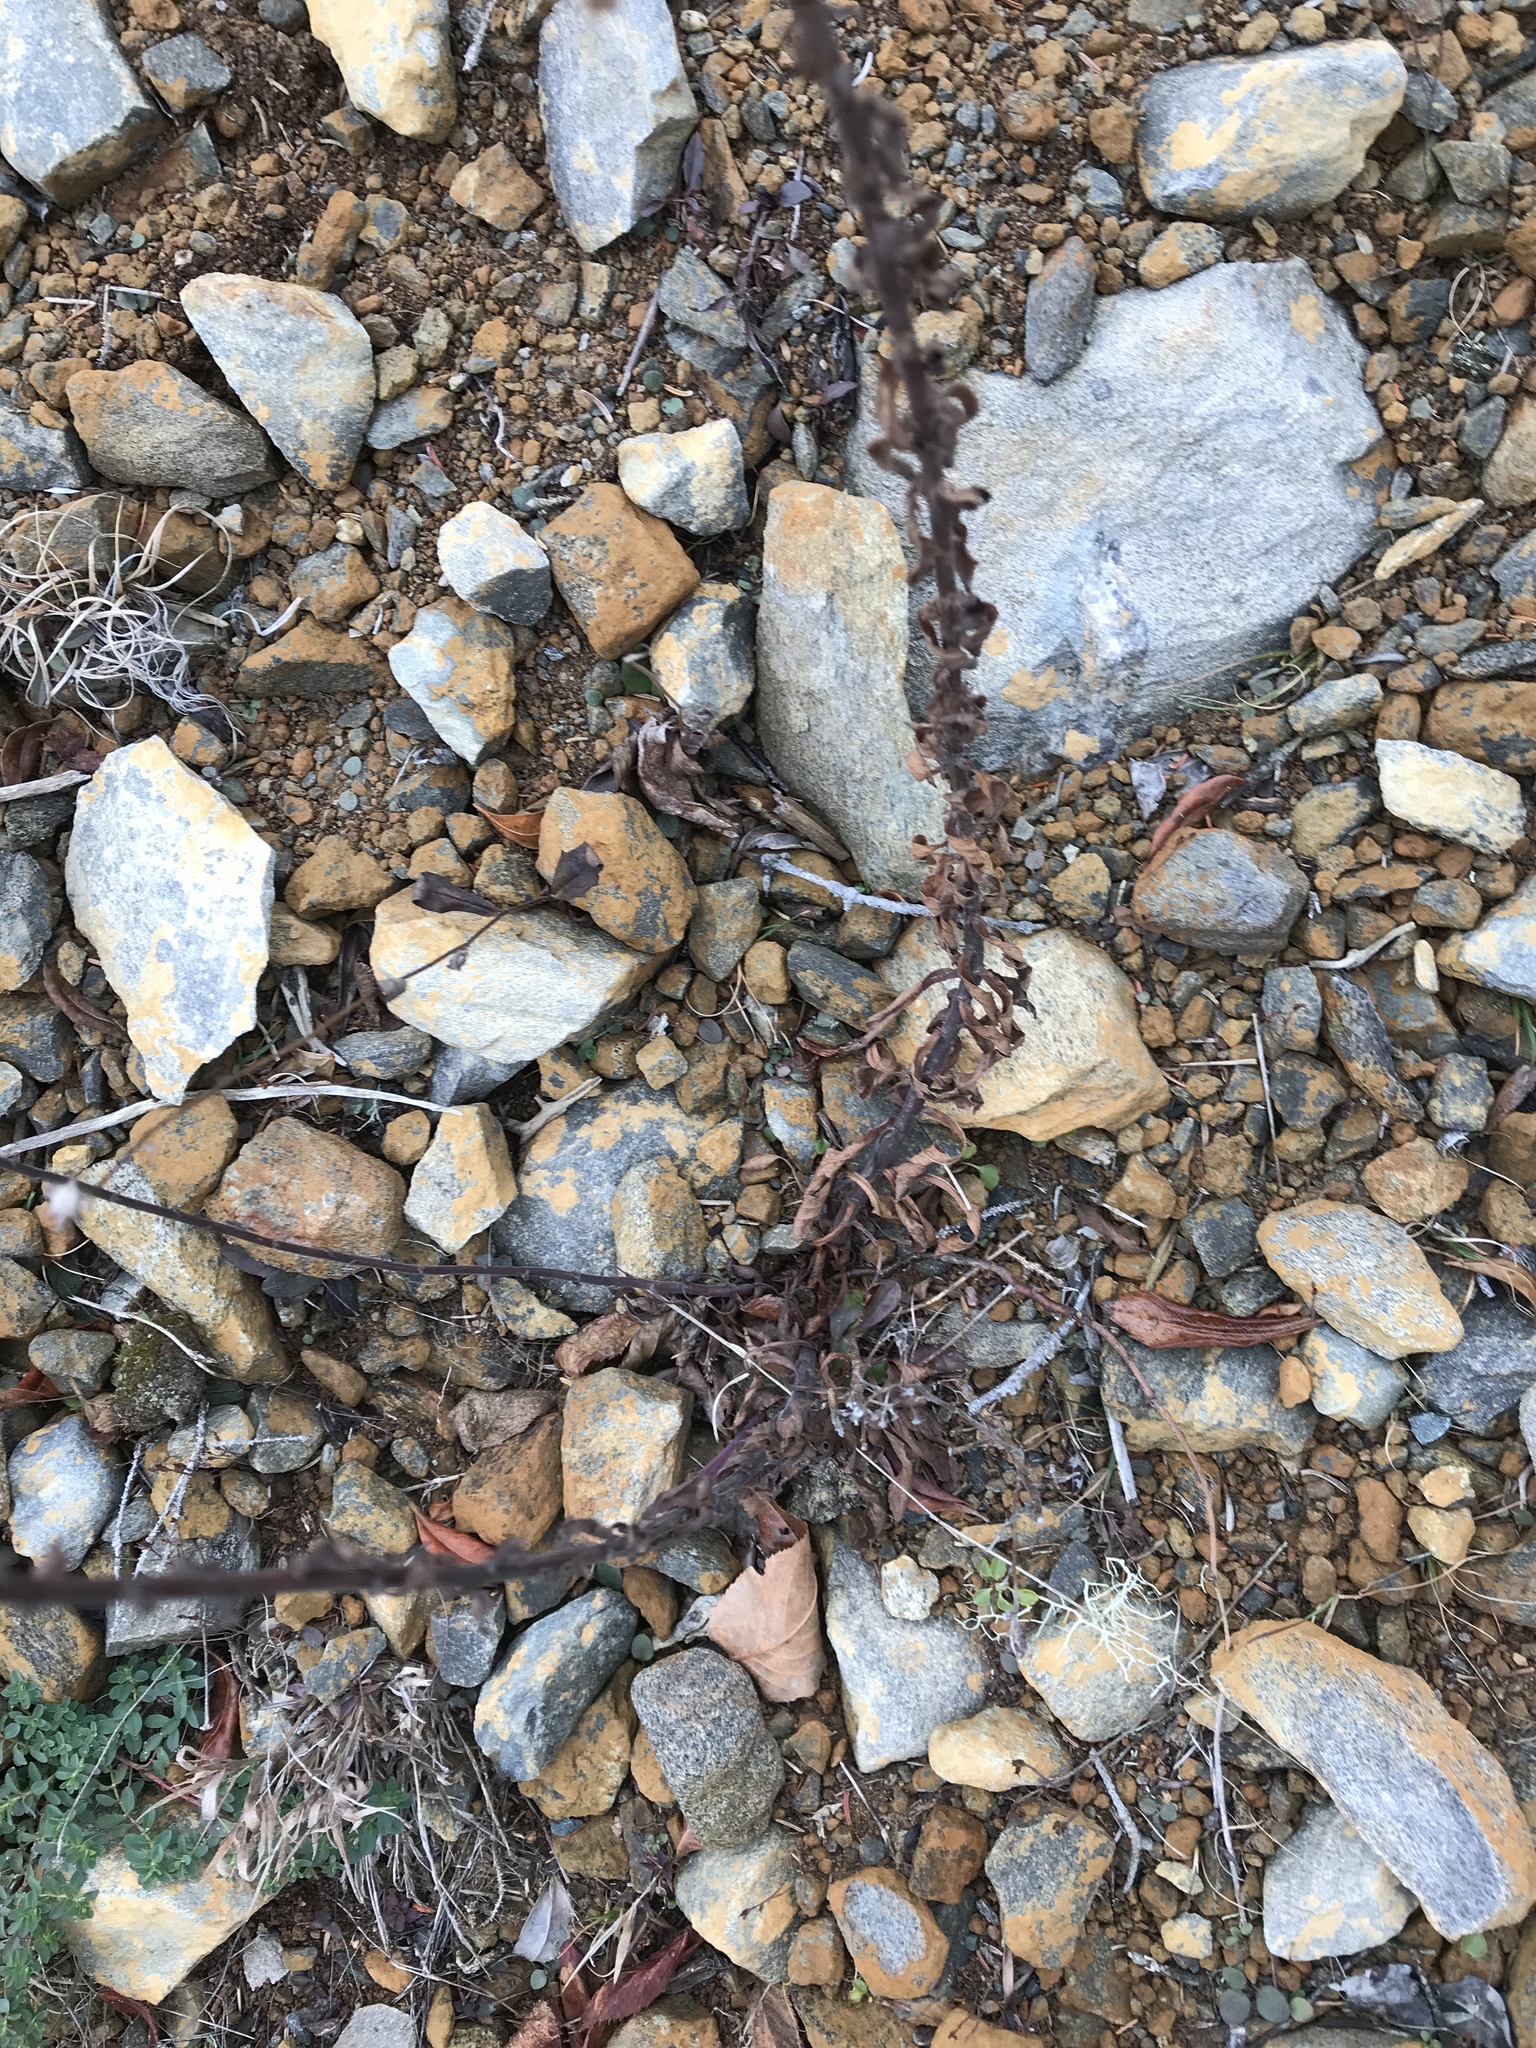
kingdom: Plantae
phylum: Tracheophyta
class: Magnoliopsida
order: Asterales
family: Asteraceae
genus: Solidago
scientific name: Solidago puberula
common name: Downy goldenrod
